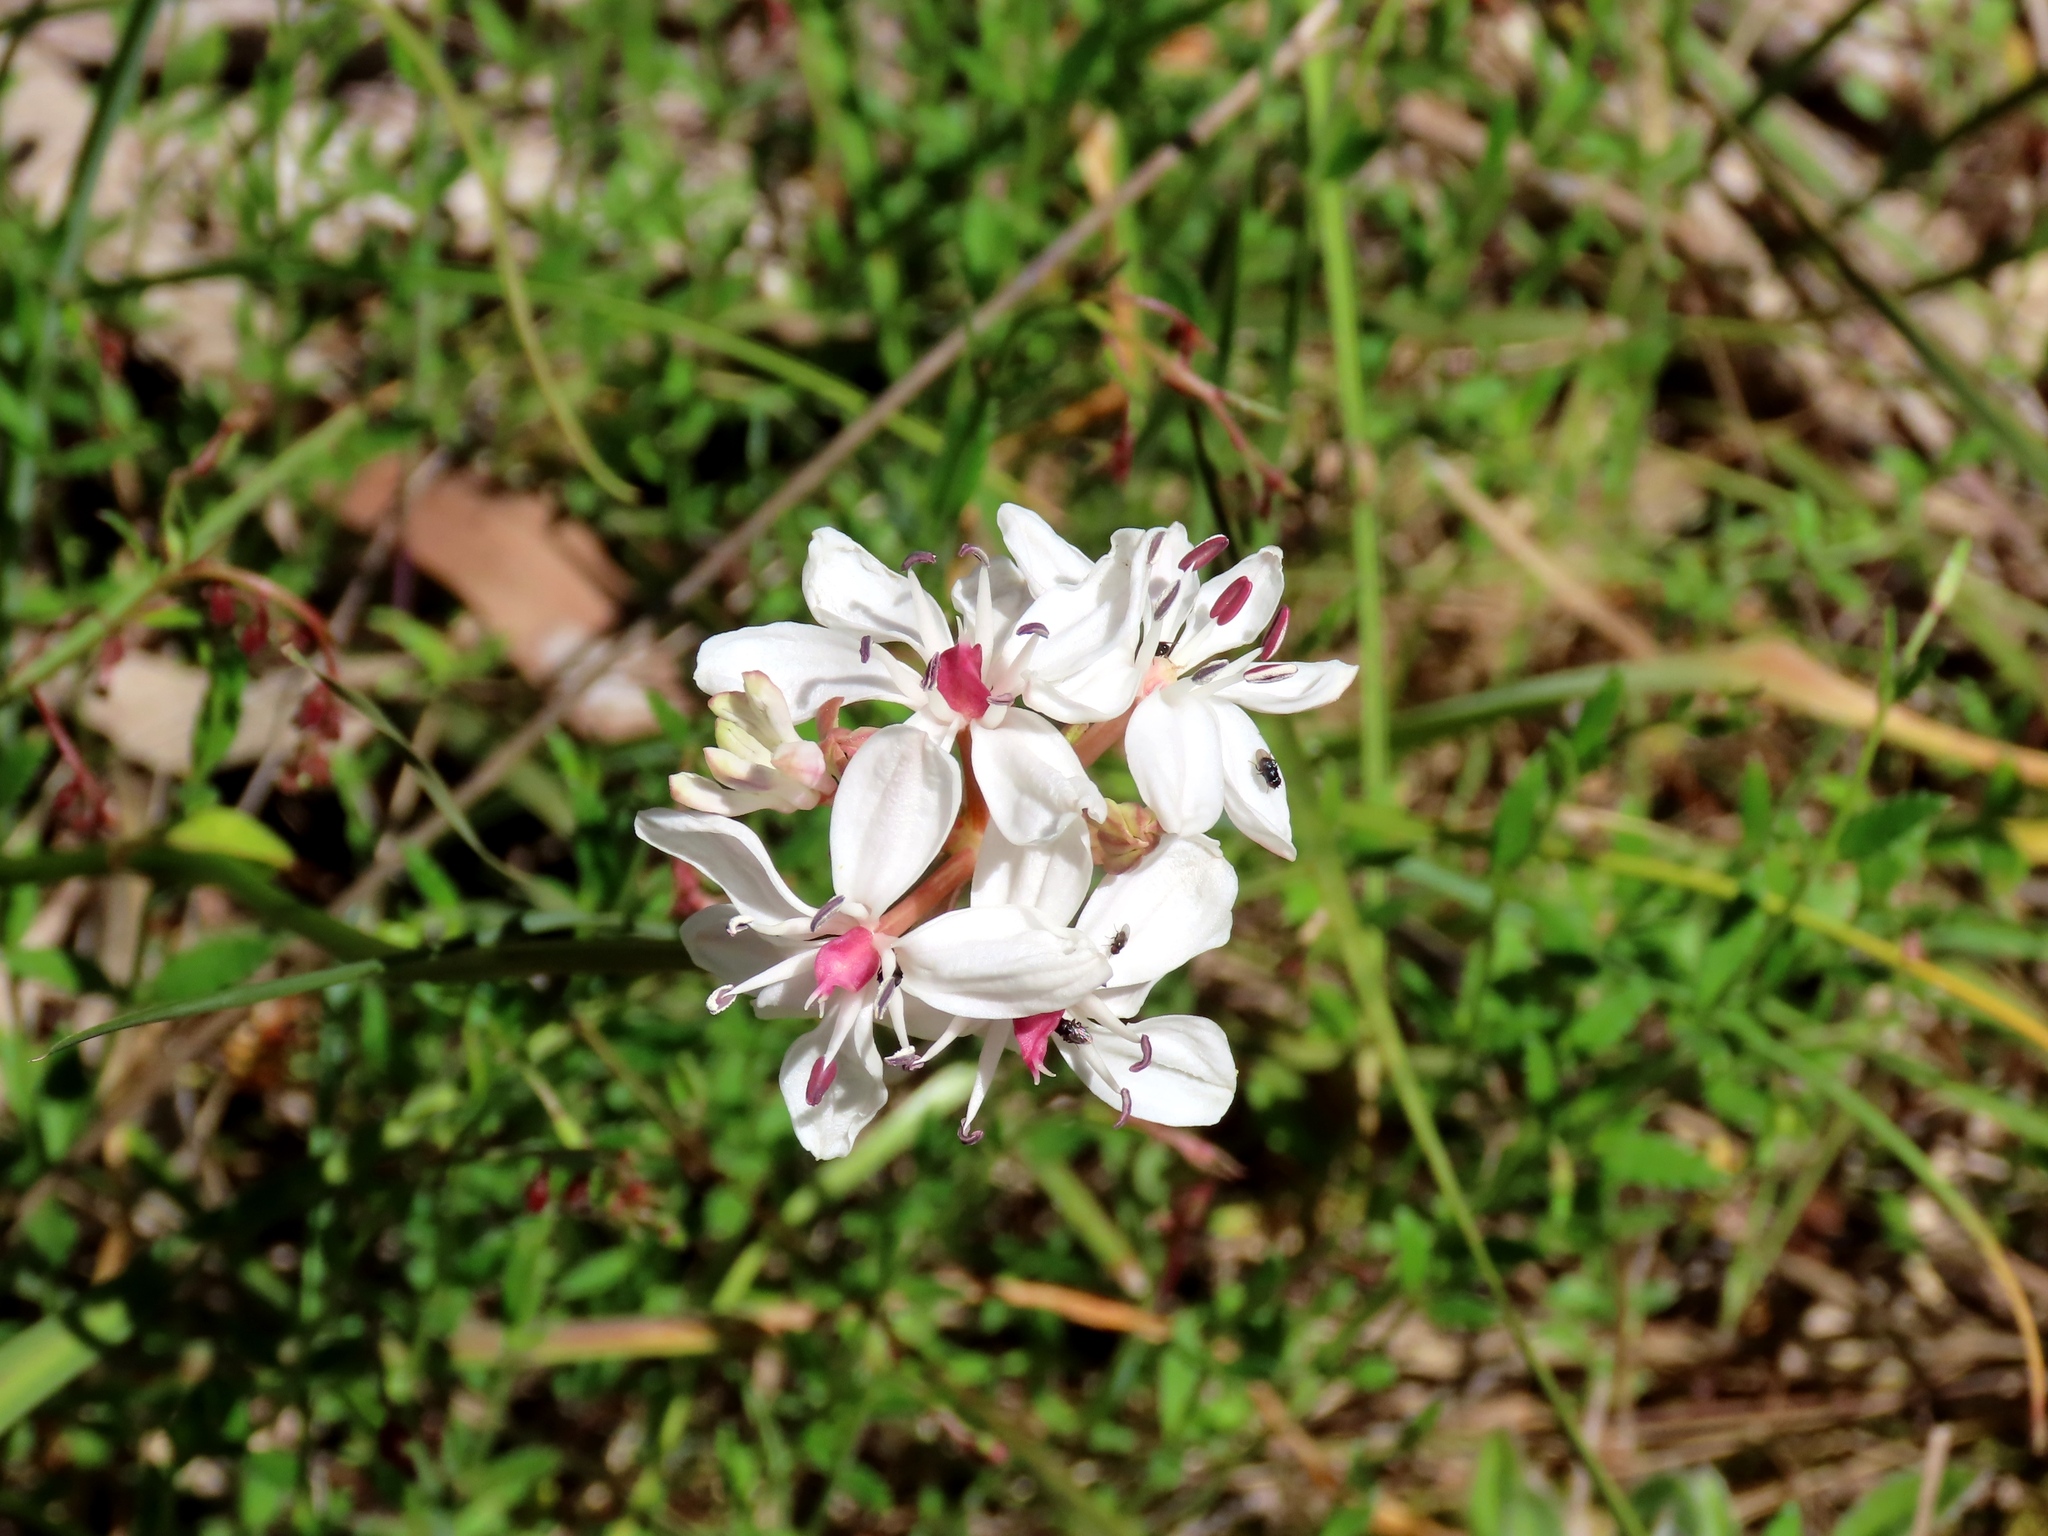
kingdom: Plantae
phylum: Tracheophyta
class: Liliopsida
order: Liliales
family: Colchicaceae
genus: Burchardia
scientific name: Burchardia umbellata
